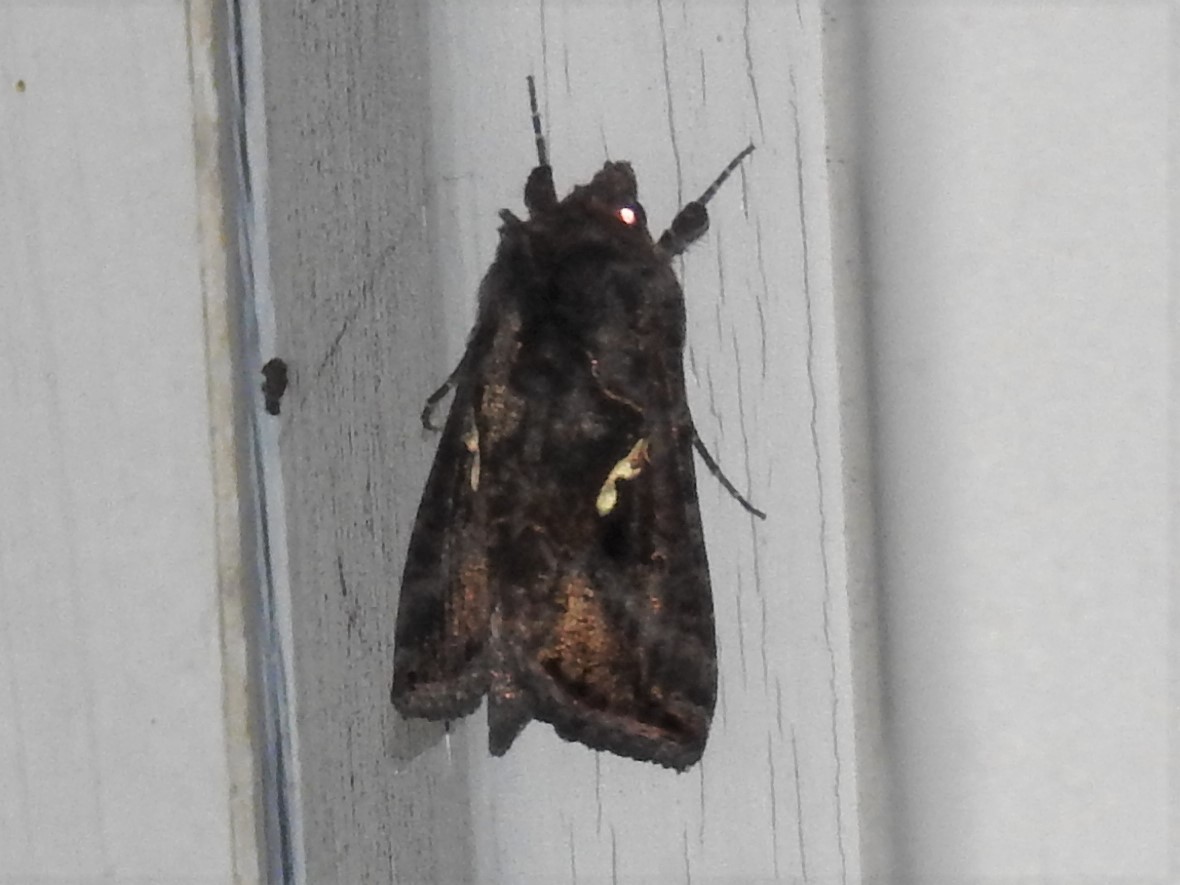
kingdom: Animalia
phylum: Arthropoda
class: Insecta
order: Lepidoptera
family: Noctuidae
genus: Autographa
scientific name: Autographa precationis
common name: Common looper moth
